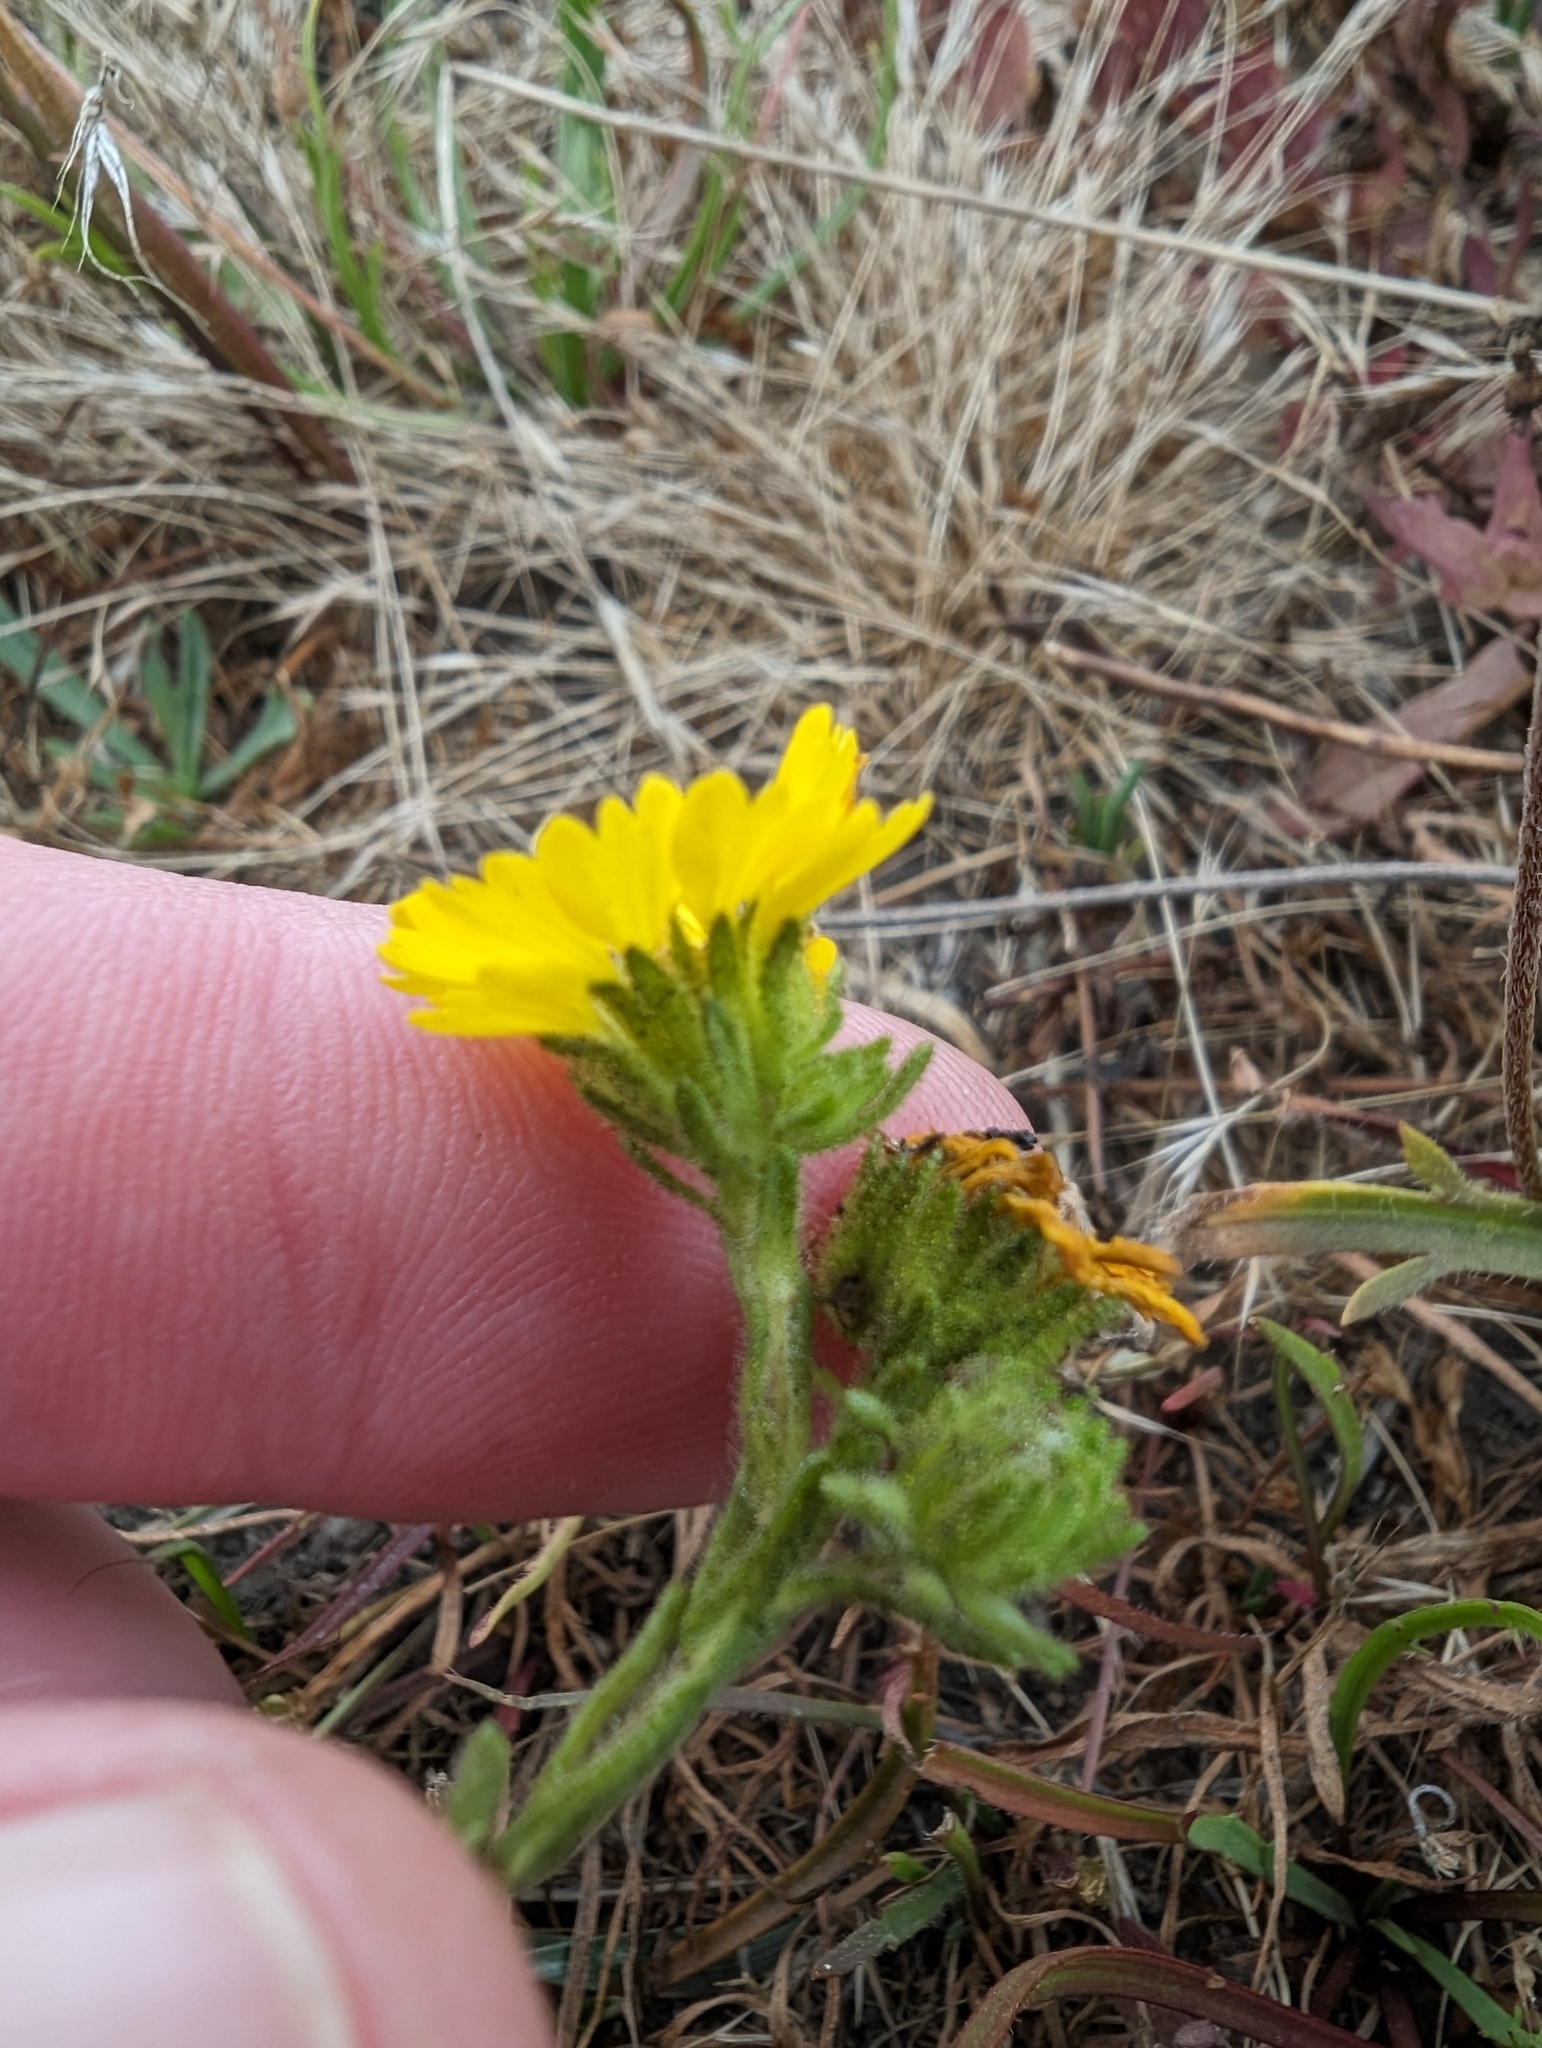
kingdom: Plantae
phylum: Tracheophyta
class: Magnoliopsida
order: Asterales
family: Asteraceae
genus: Deinandra
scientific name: Deinandra corymbosa
